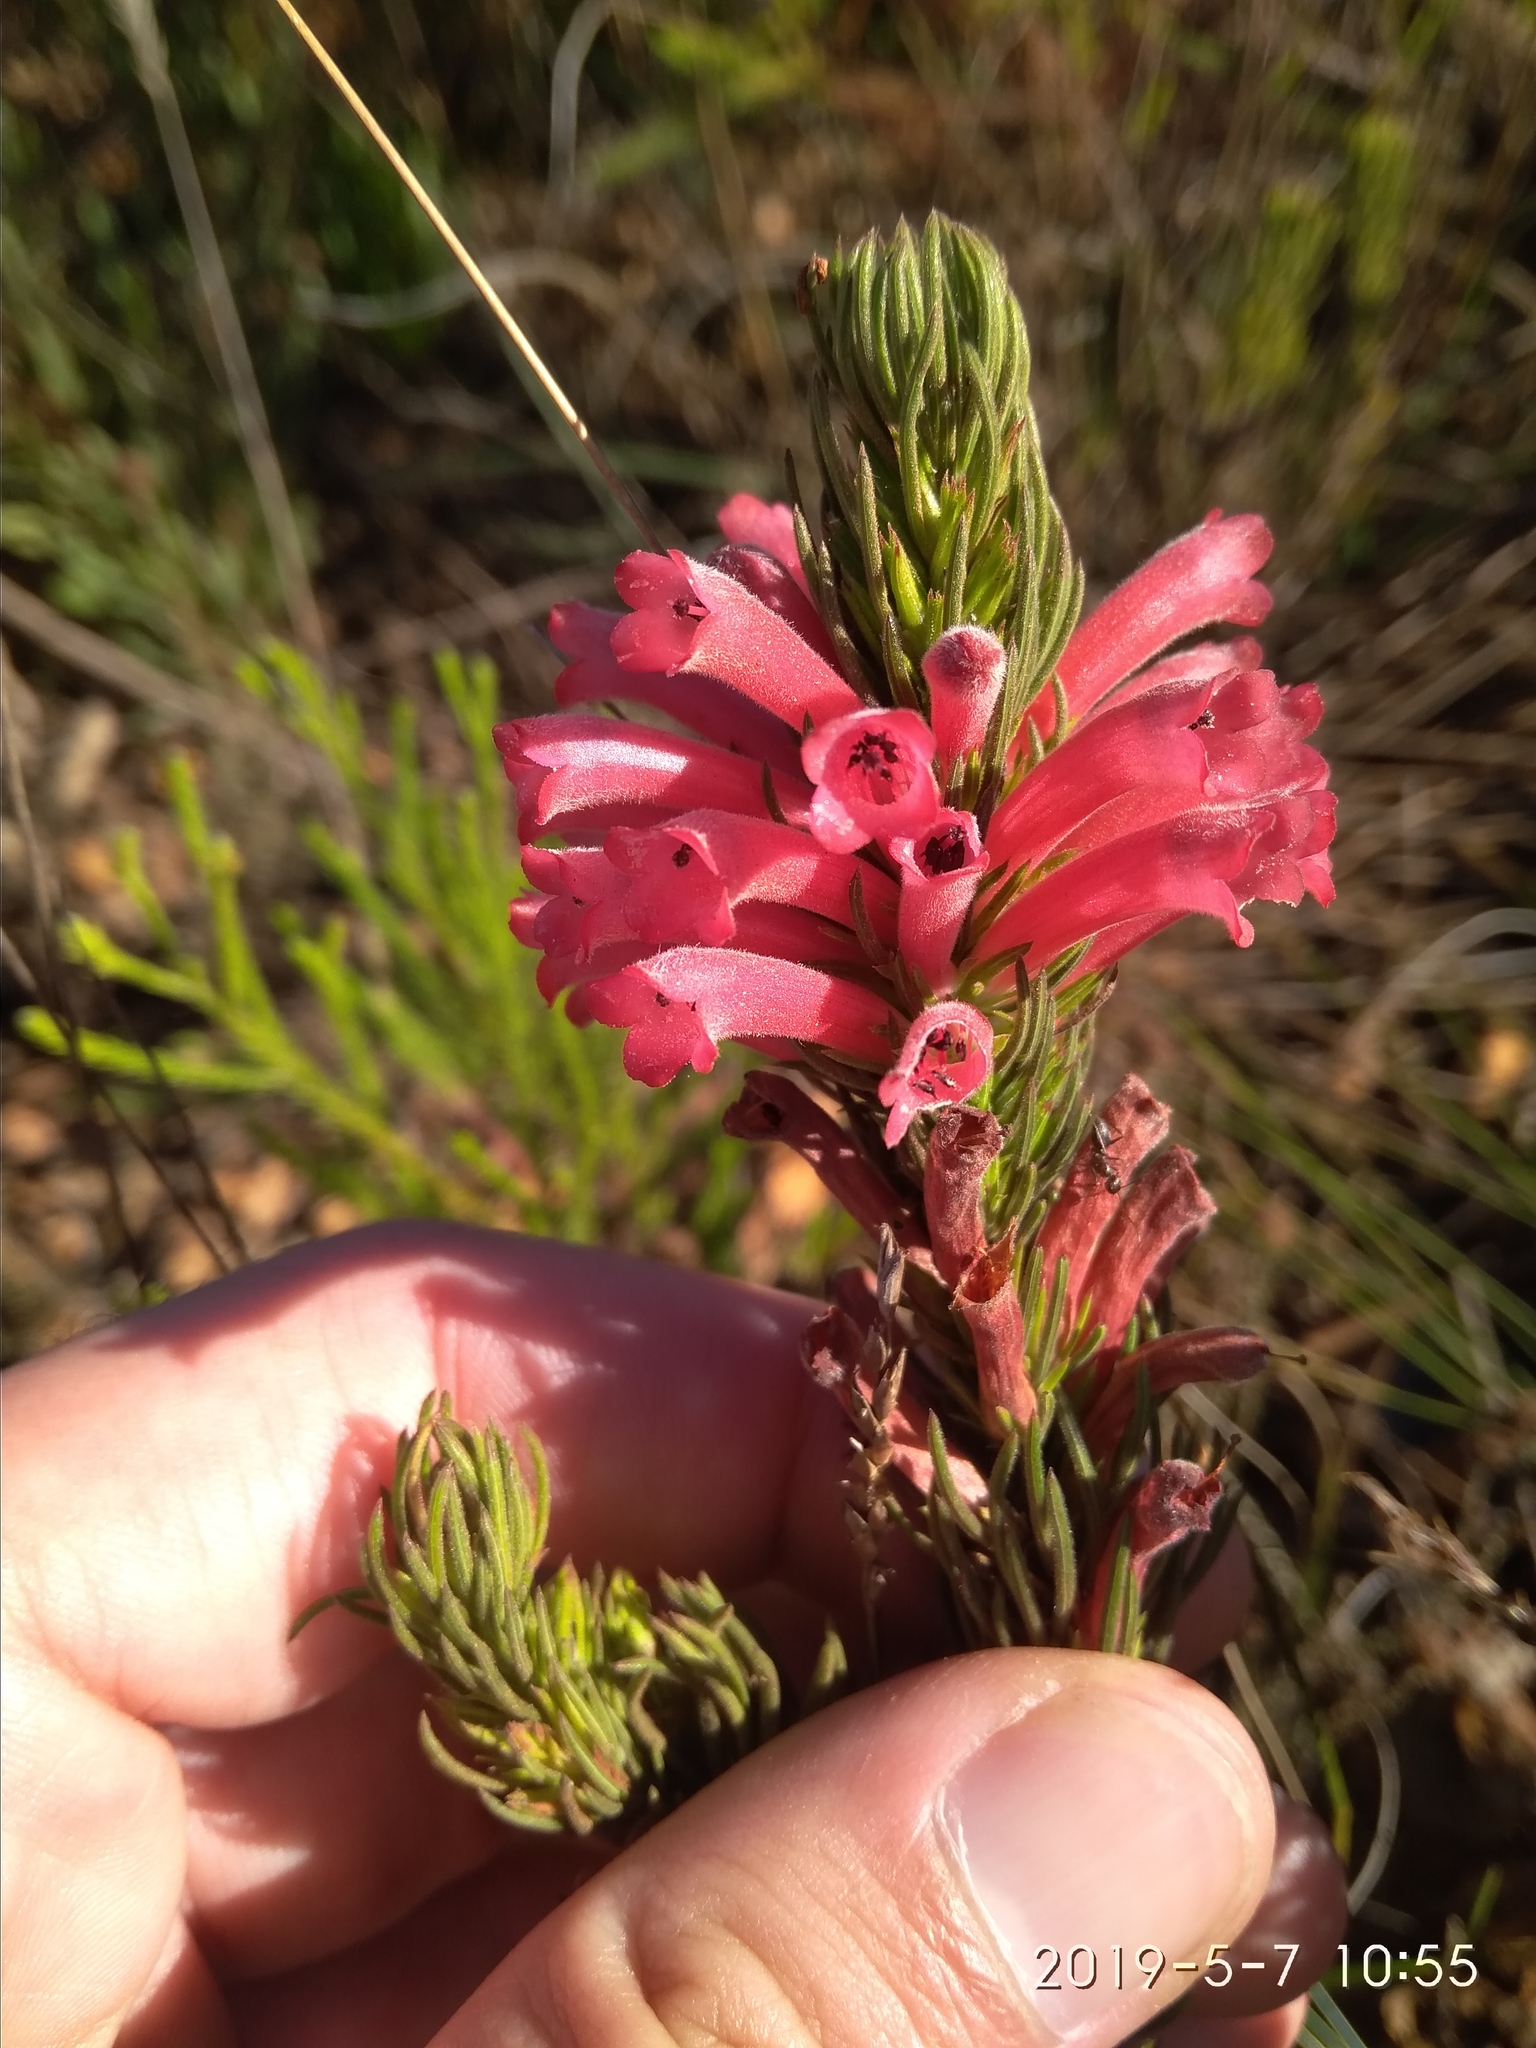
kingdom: Plantae
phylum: Tracheophyta
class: Magnoliopsida
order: Ericales
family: Ericaceae
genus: Erica
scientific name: Erica vestita
